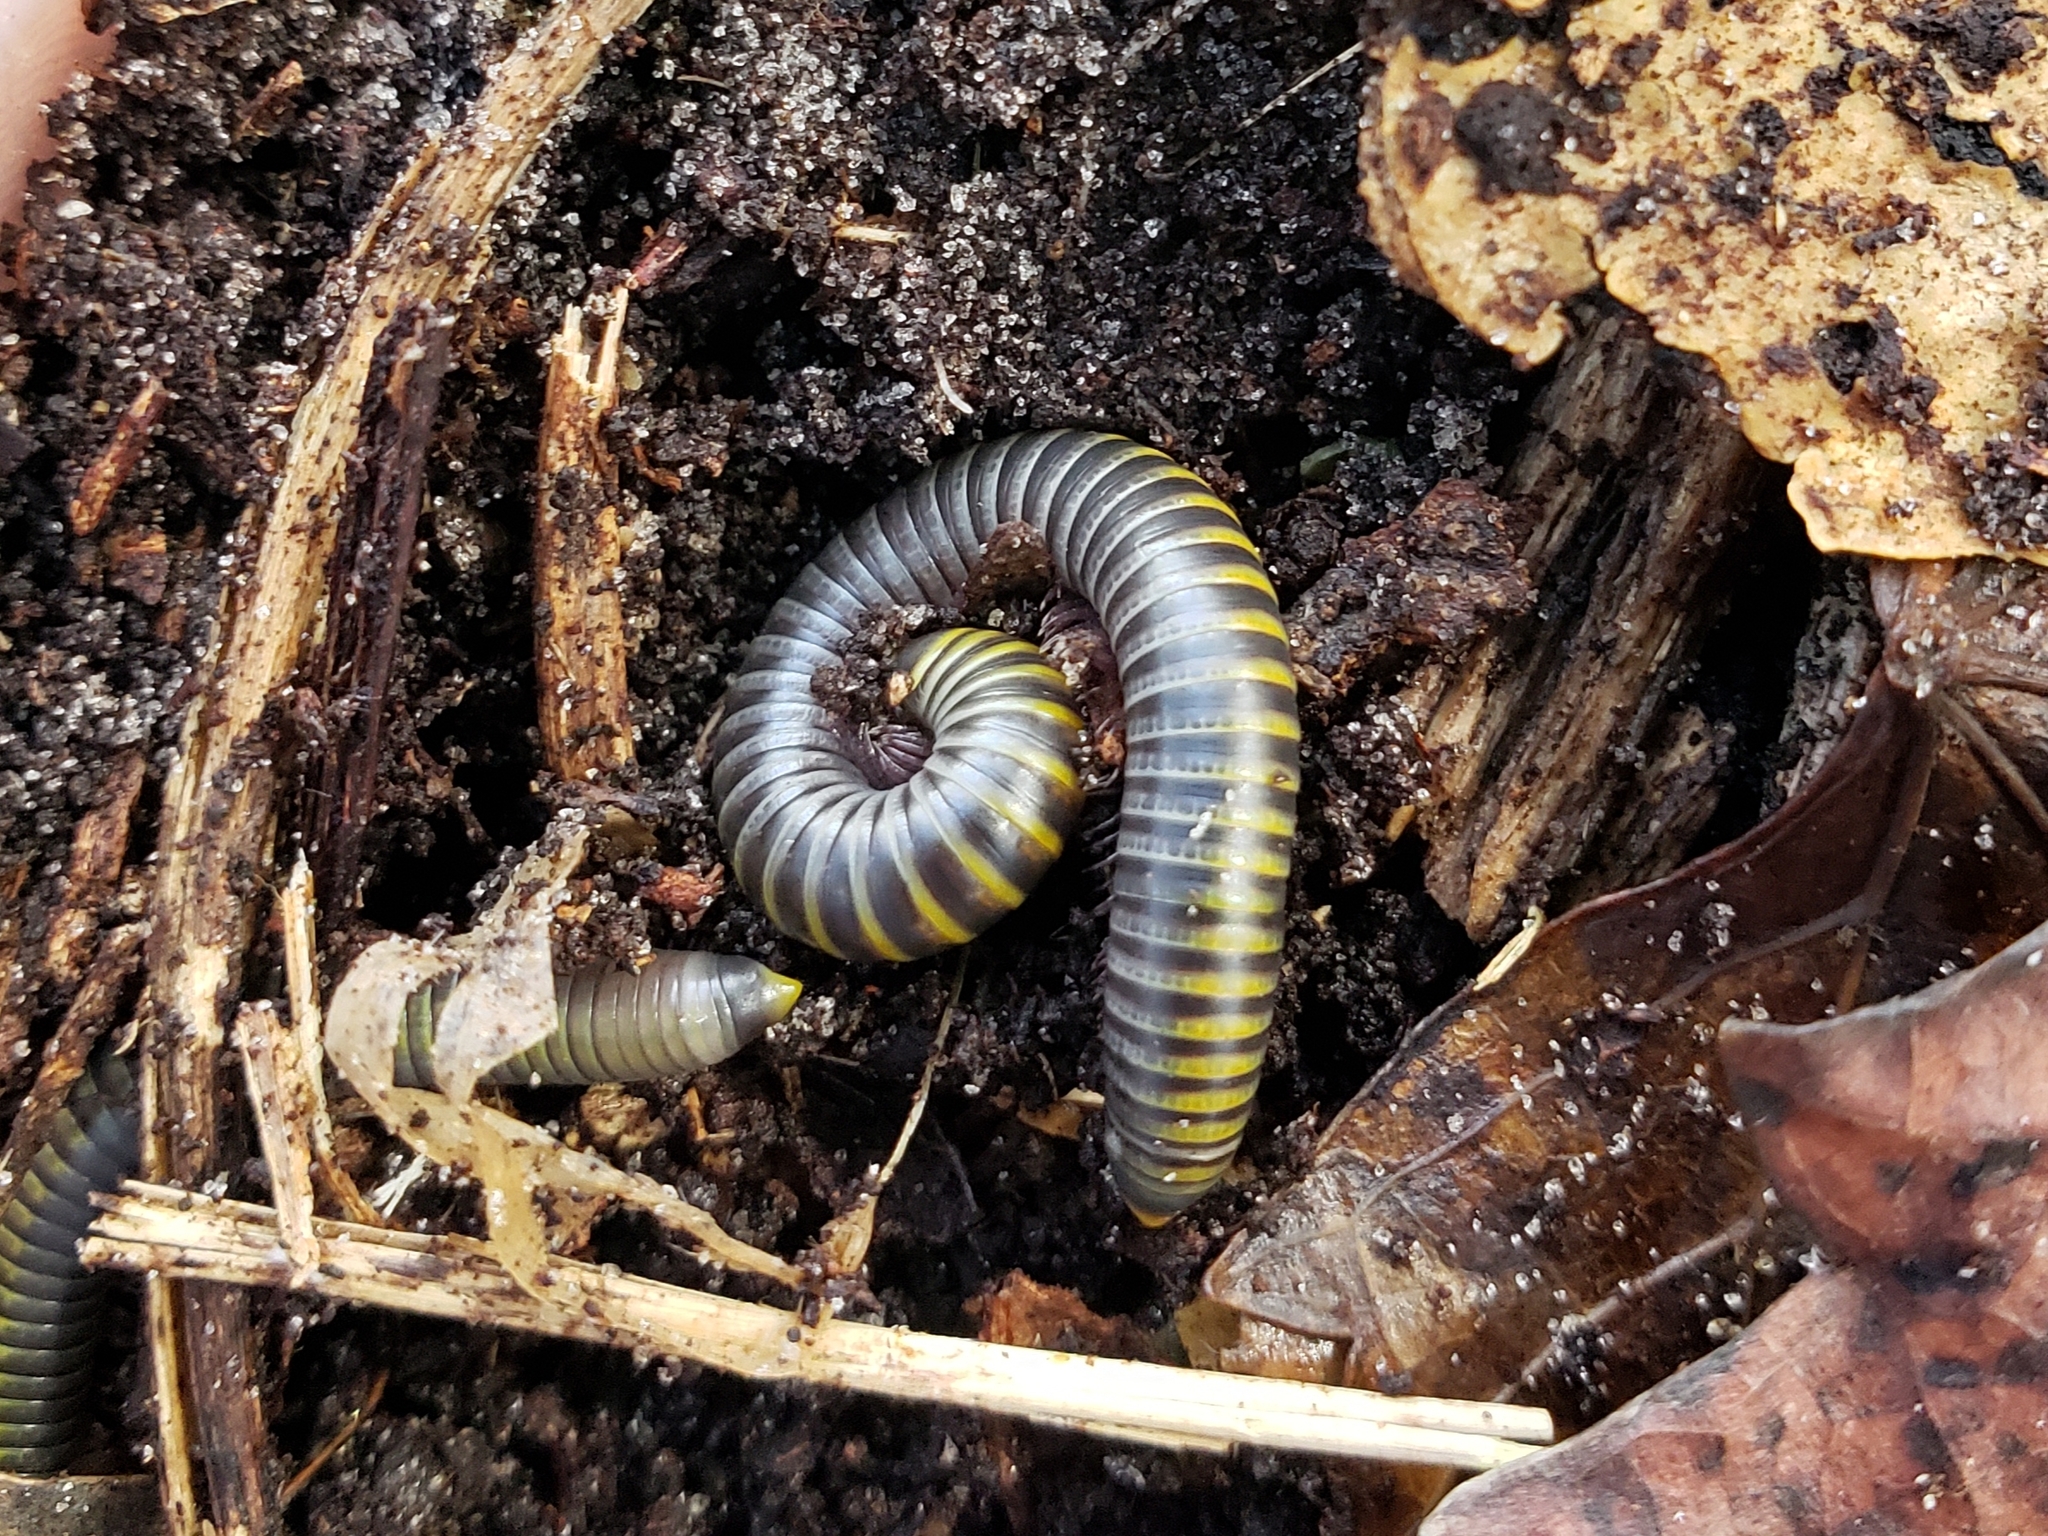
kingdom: Animalia
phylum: Arthropoda
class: Diplopoda
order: Spirobolida
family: Rhinocricidae
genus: Anadenobolus
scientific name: Anadenobolus monilicornis
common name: Caribbean millipede
